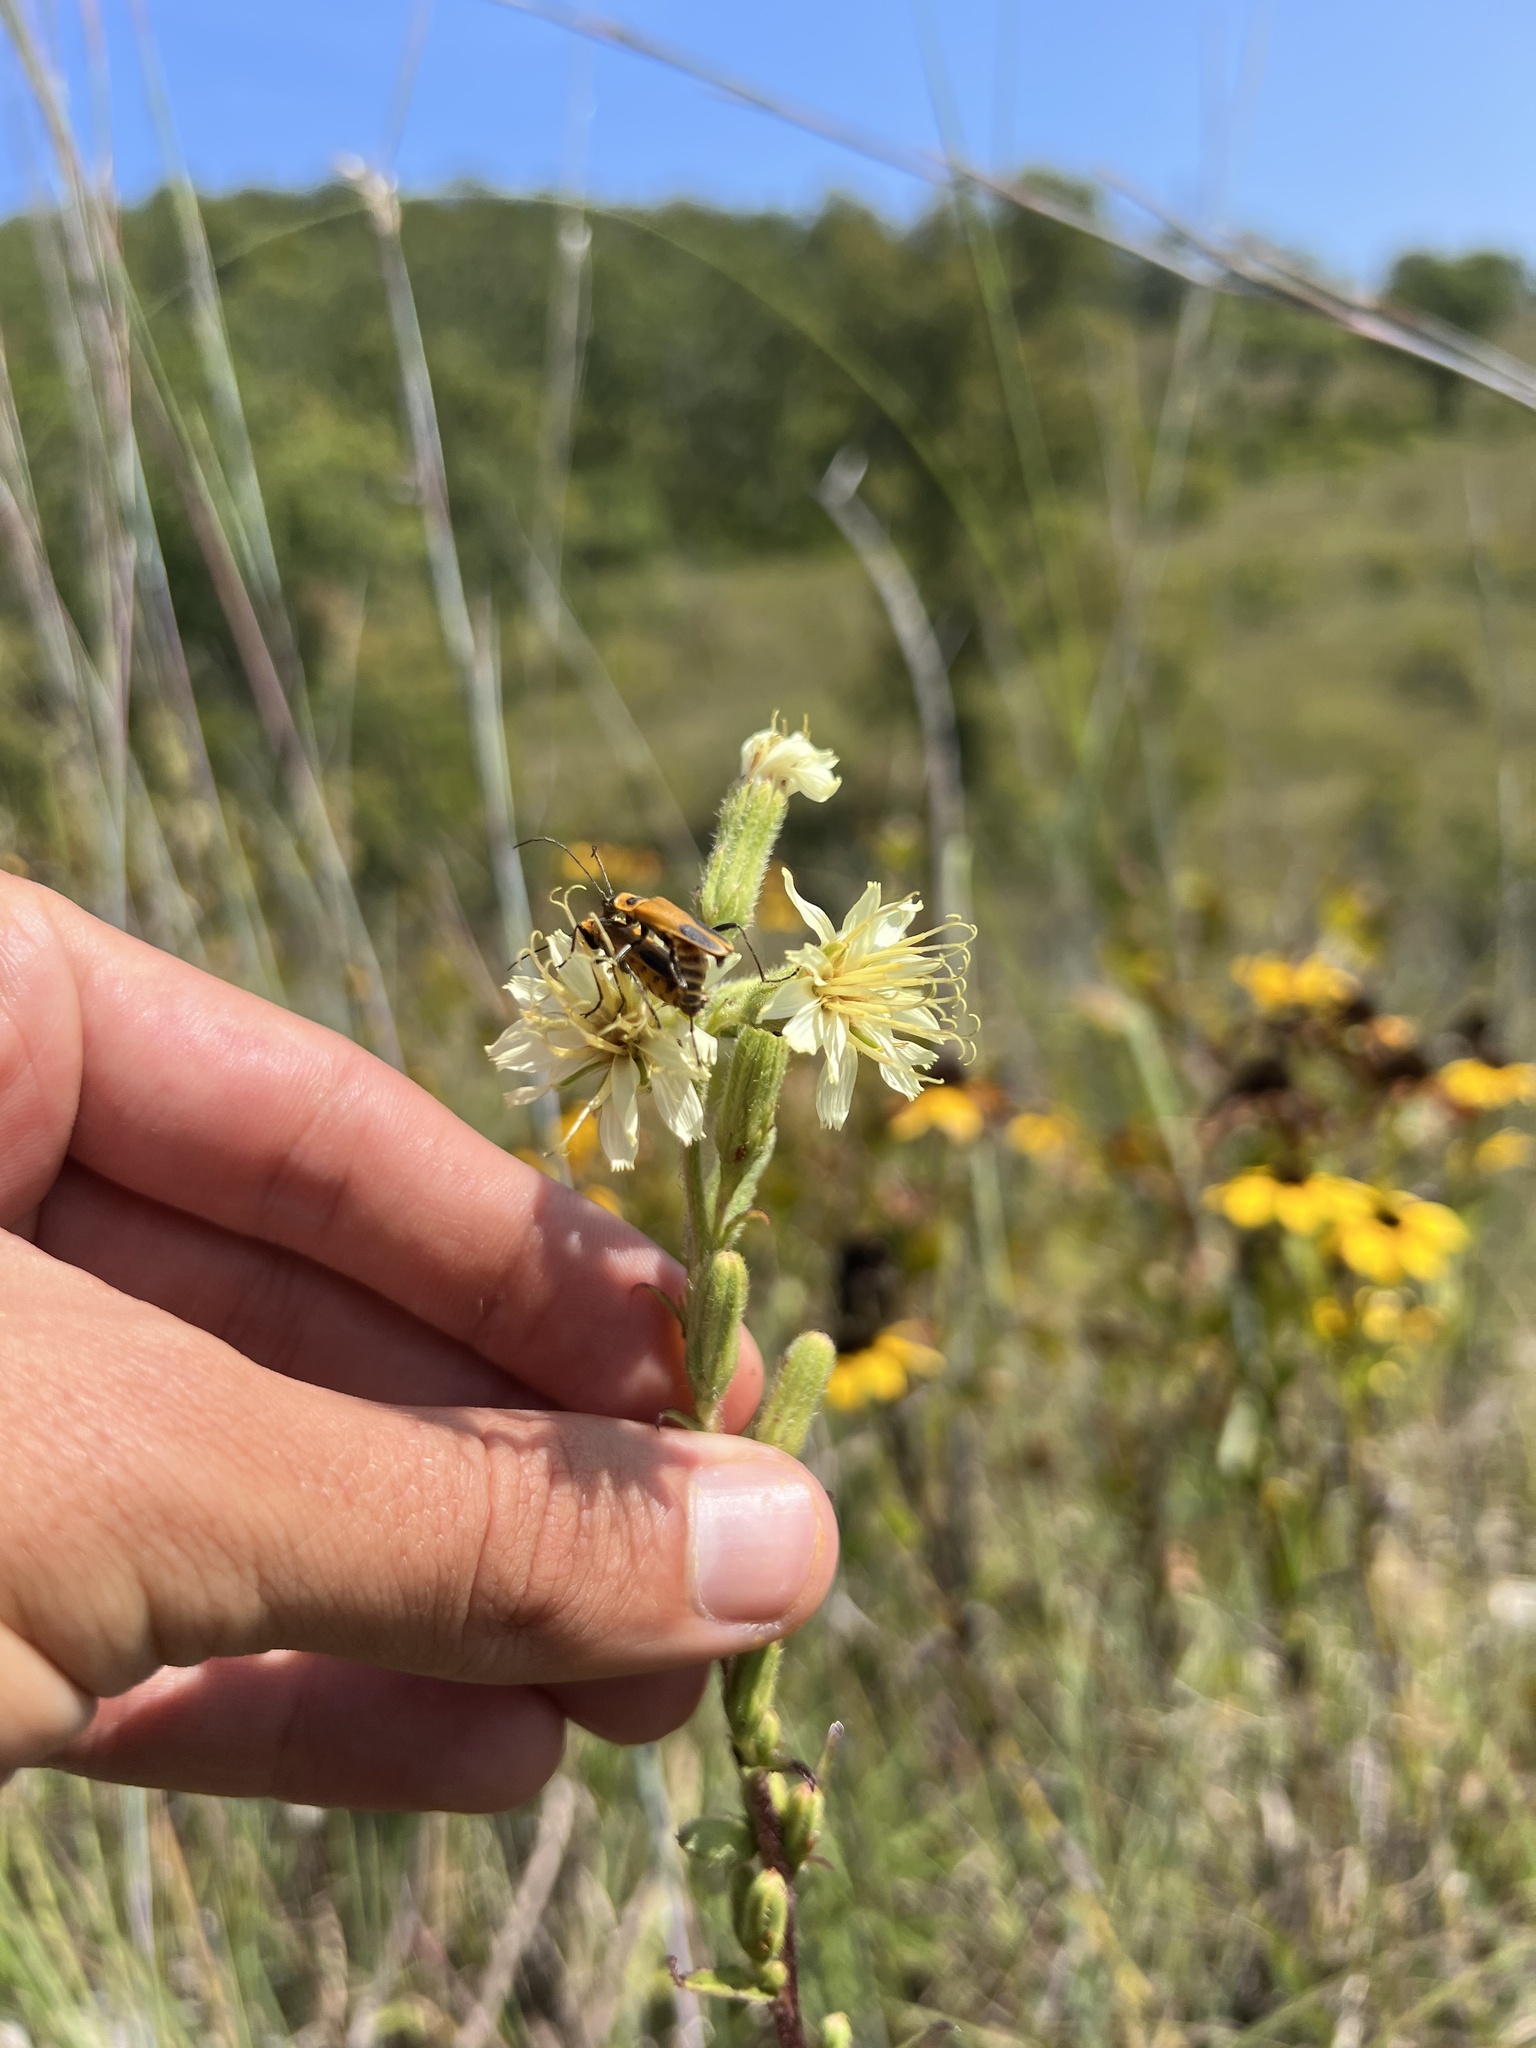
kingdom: Plantae
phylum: Tracheophyta
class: Magnoliopsida
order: Asterales
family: Asteraceae
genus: Nabalus
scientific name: Nabalus asper
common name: Rough rattlesnakeroot
